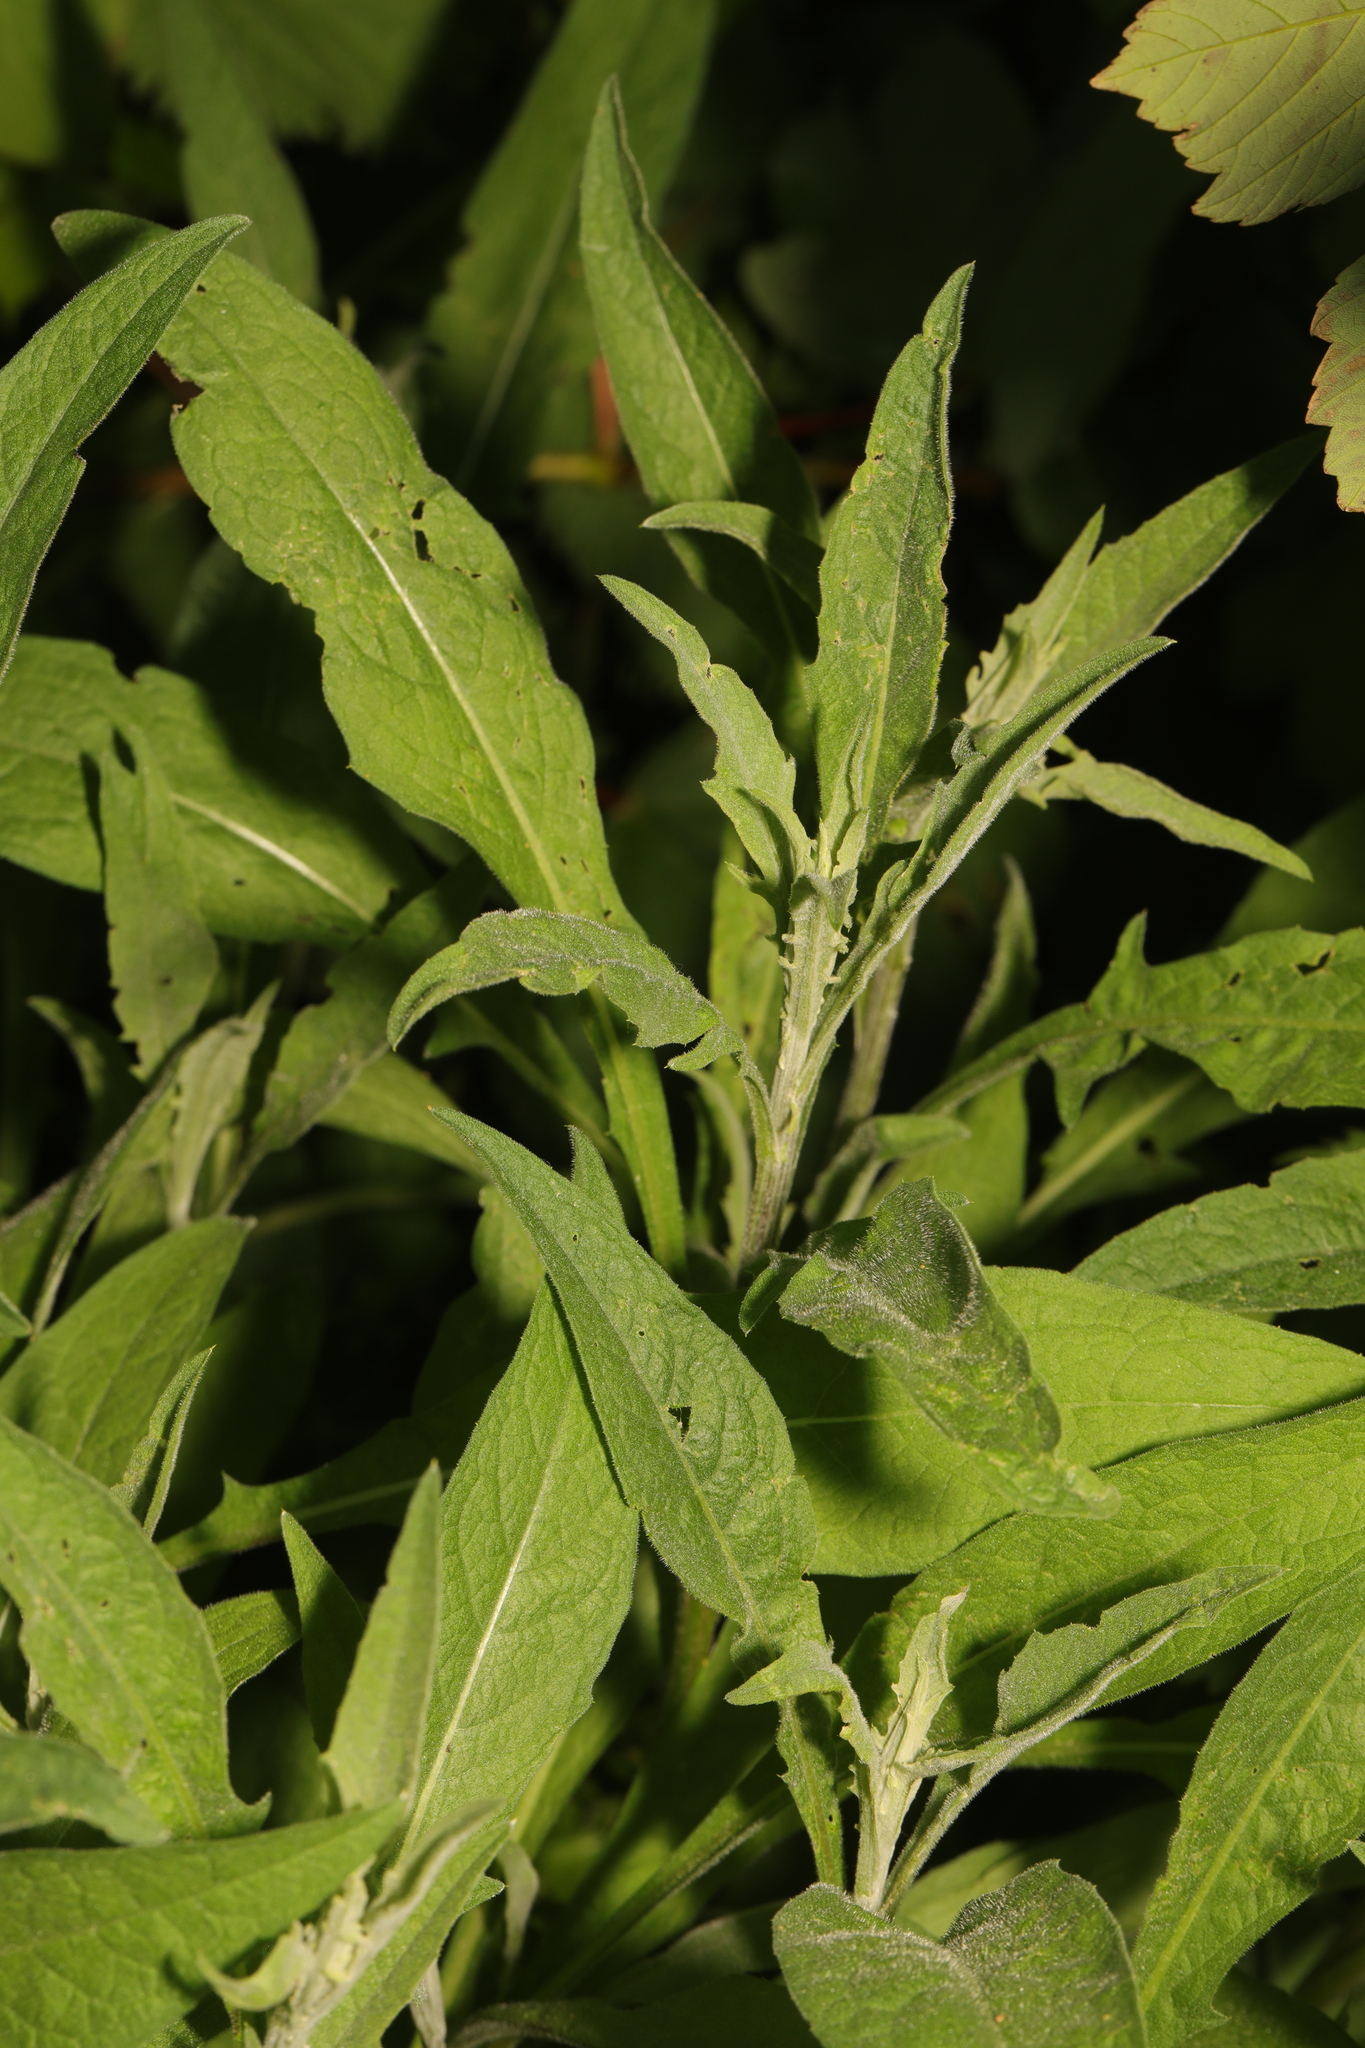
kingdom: Plantae
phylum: Tracheophyta
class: Magnoliopsida
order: Asterales
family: Asteraceae
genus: Centaurea
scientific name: Centaurea nigra
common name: Lesser knapweed
